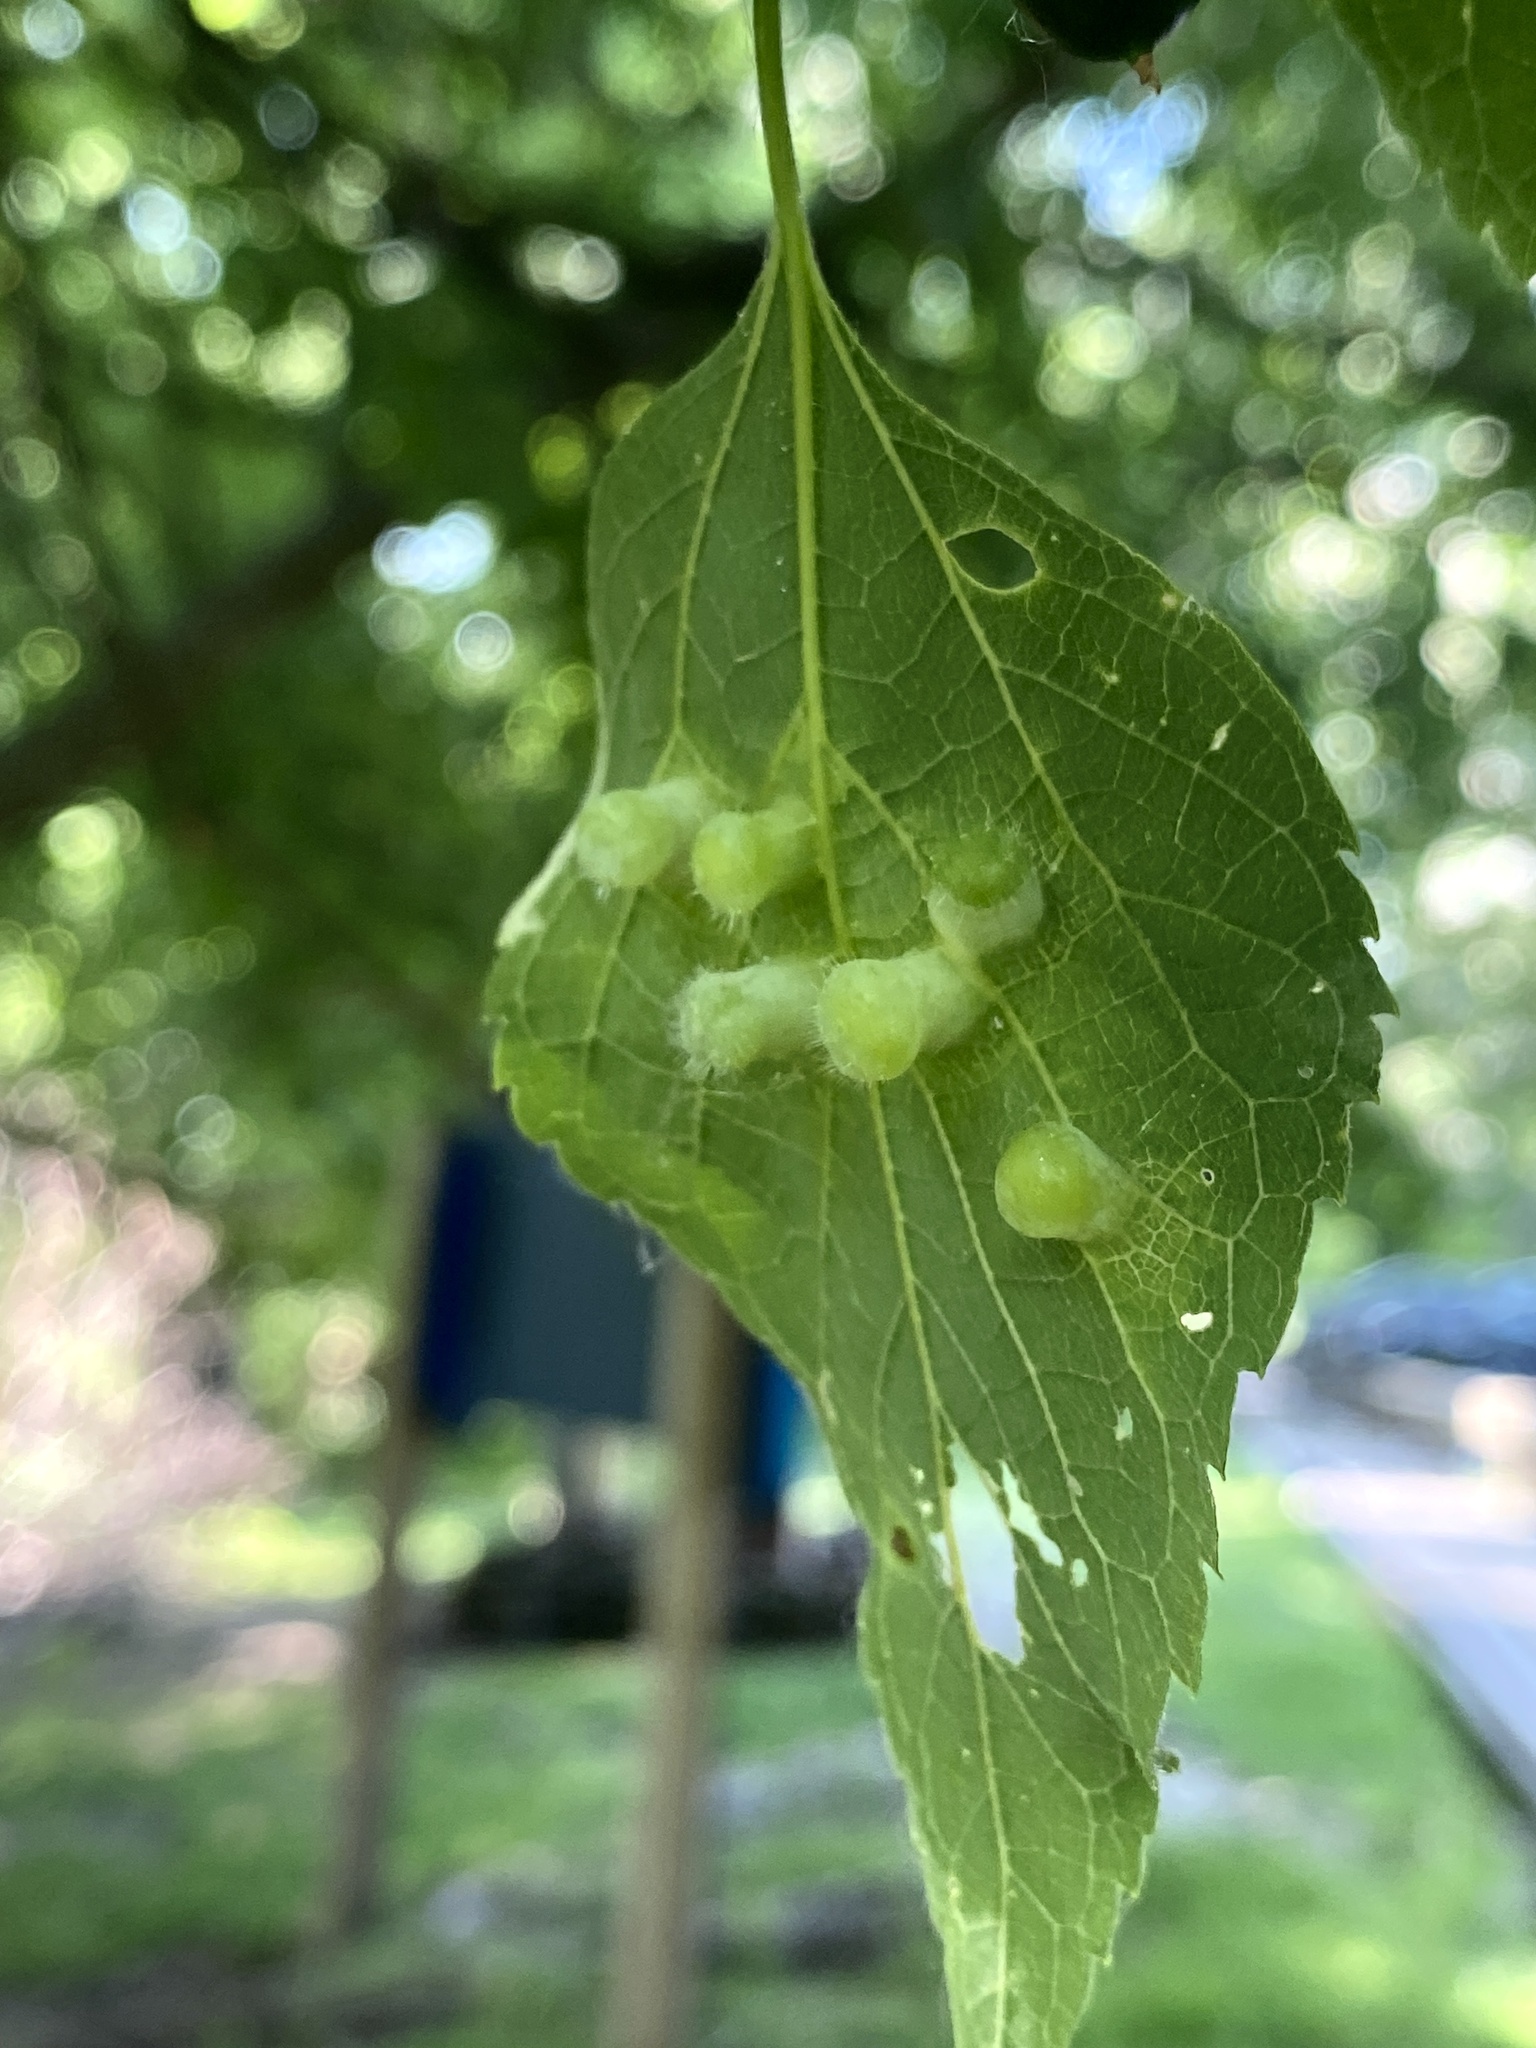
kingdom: Animalia
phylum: Arthropoda
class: Insecta
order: Hemiptera
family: Aphalaridae
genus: Pachypsylla
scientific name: Pachypsylla celtidismamma
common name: Hackberry nipplegall psyllid
